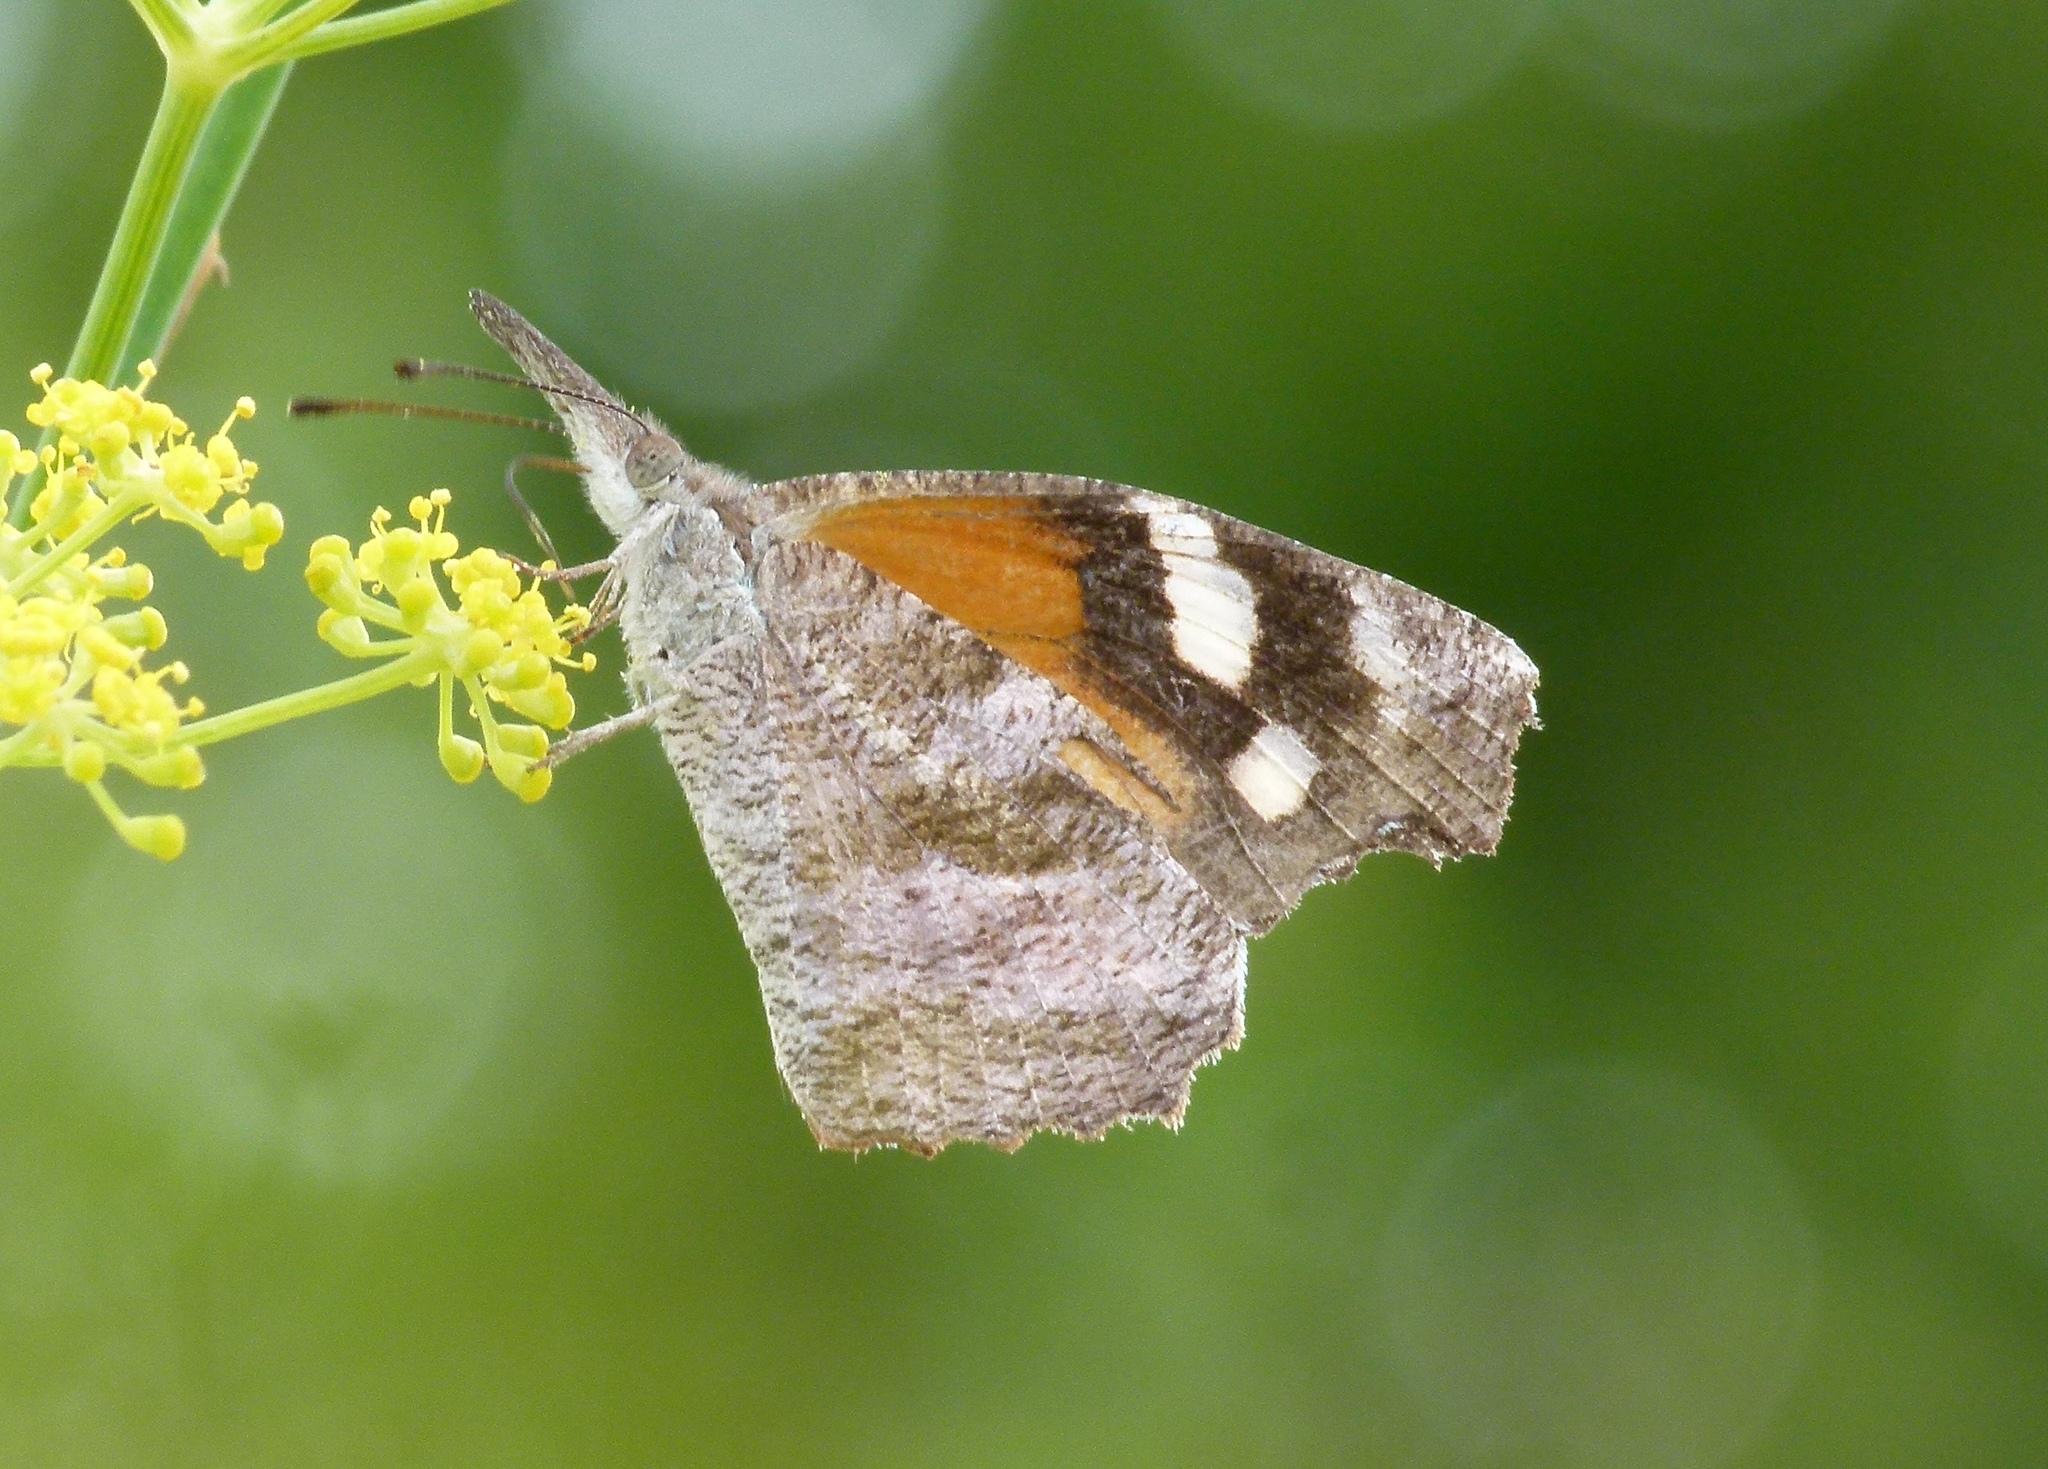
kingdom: Animalia
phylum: Arthropoda
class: Insecta
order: Lepidoptera
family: Nymphalidae
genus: Libytheana
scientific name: Libytheana carinenta
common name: American snout
